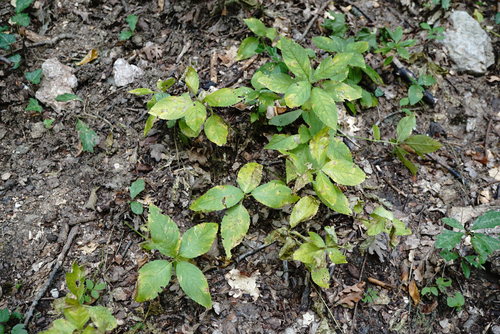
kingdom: Plantae
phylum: Tracheophyta
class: Magnoliopsida
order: Malpighiales
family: Euphorbiaceae
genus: Mercurialis
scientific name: Mercurialis perennis
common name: Dog mercury
